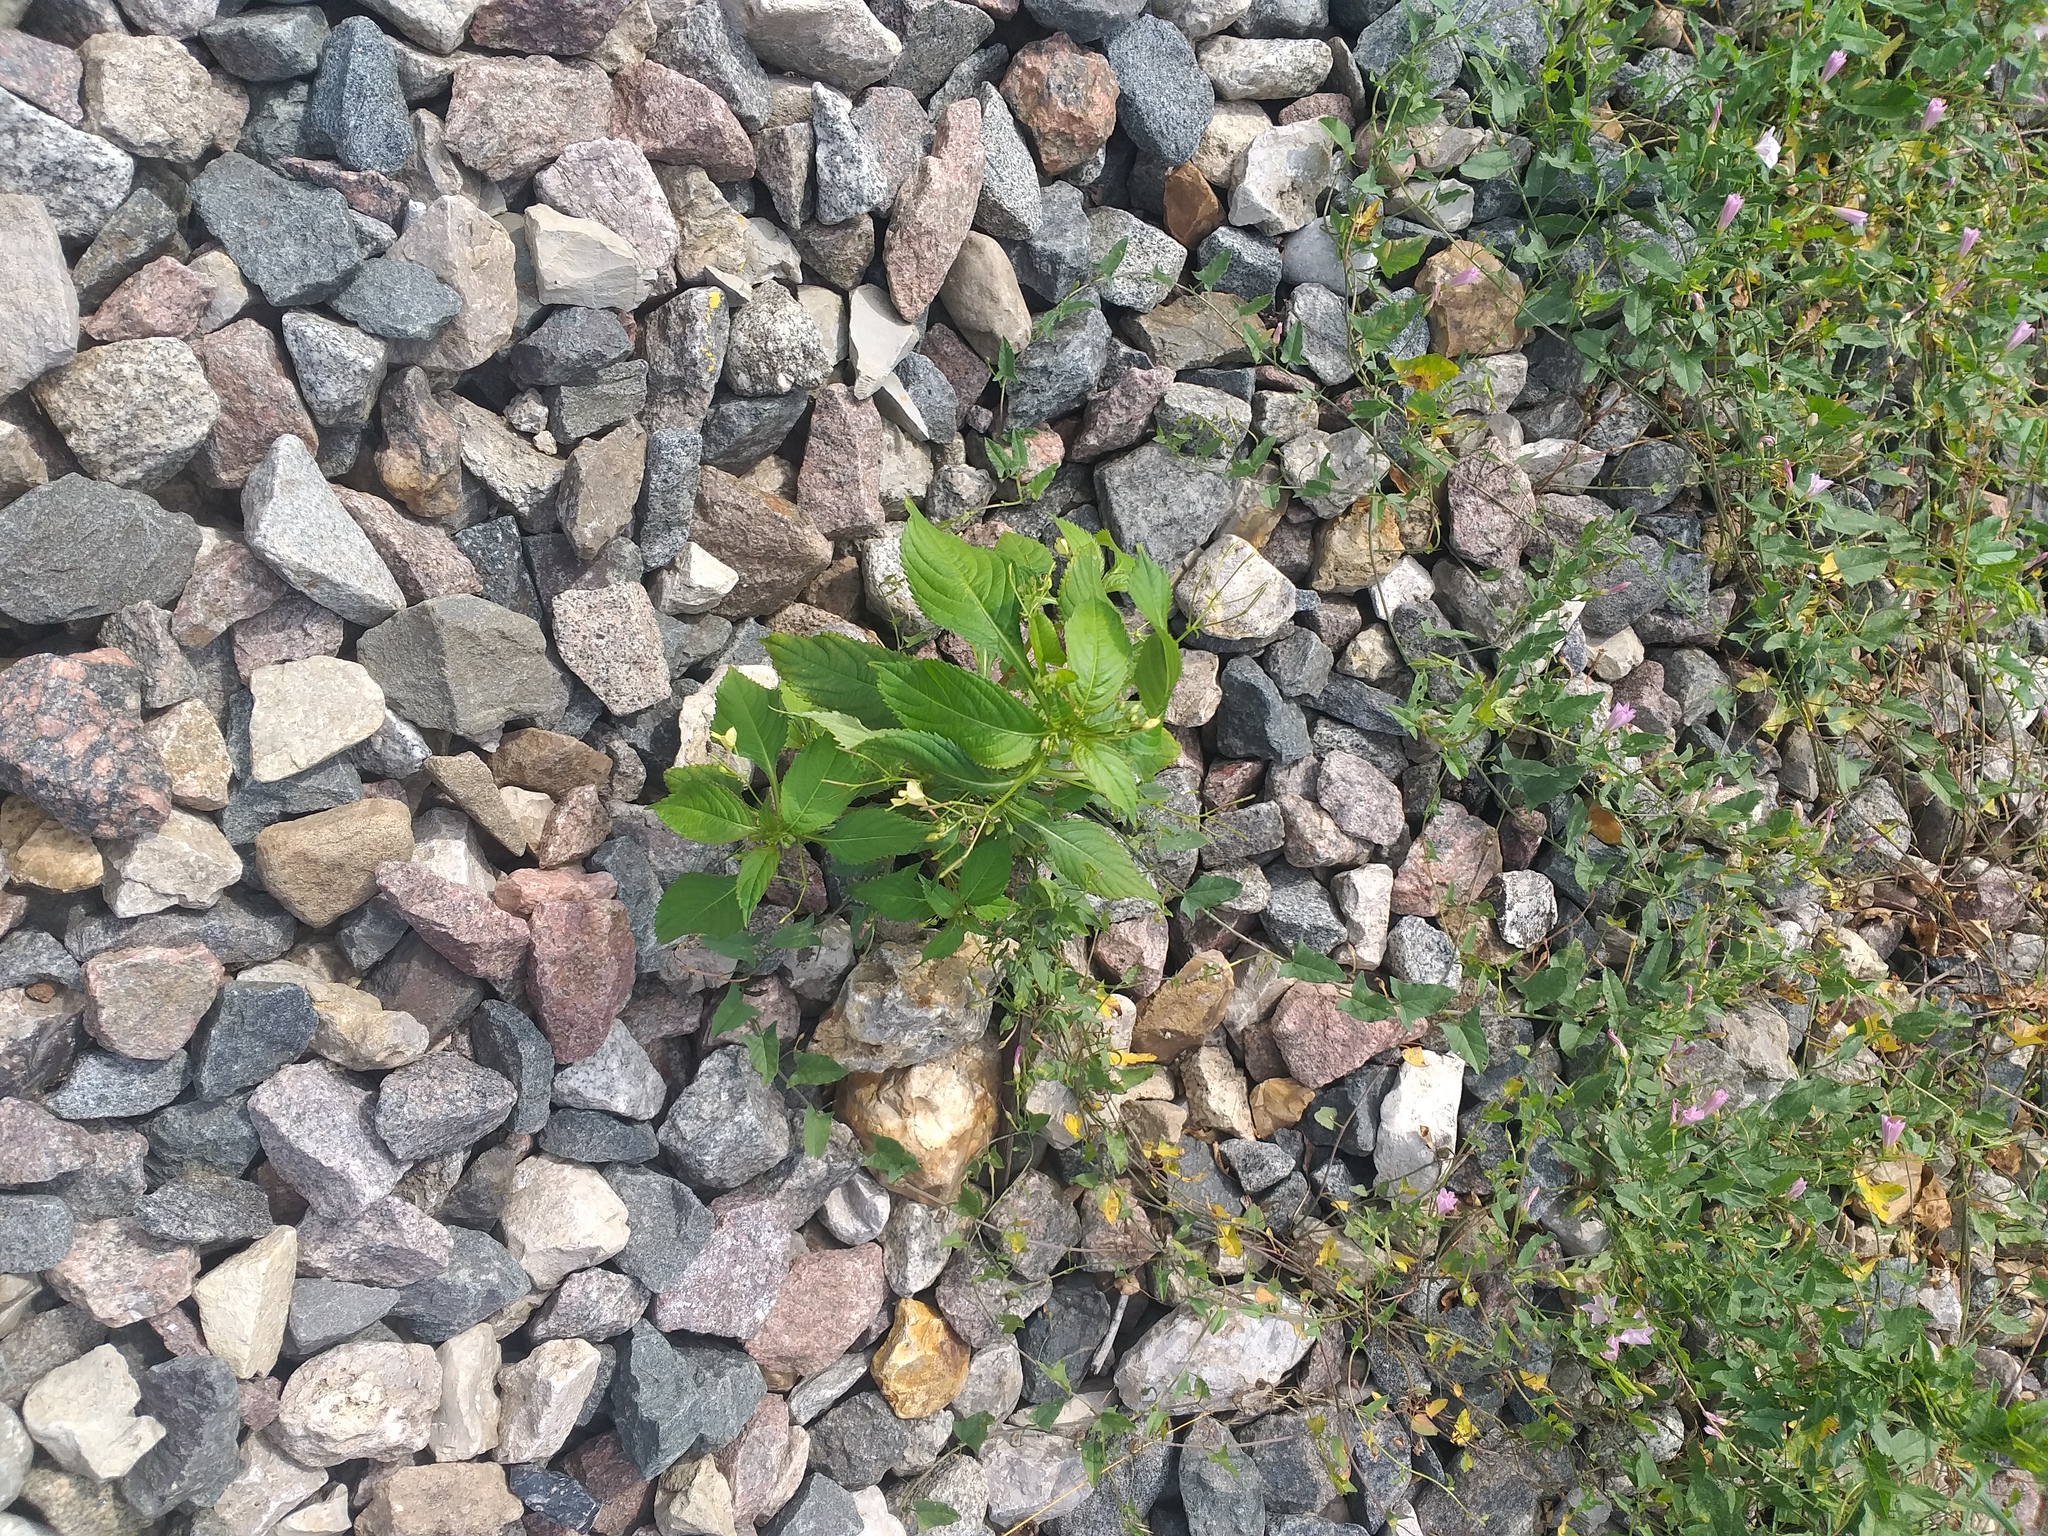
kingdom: Plantae
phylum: Tracheophyta
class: Magnoliopsida
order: Ericales
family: Balsaminaceae
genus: Impatiens
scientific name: Impatiens parviflora
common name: Small balsam
